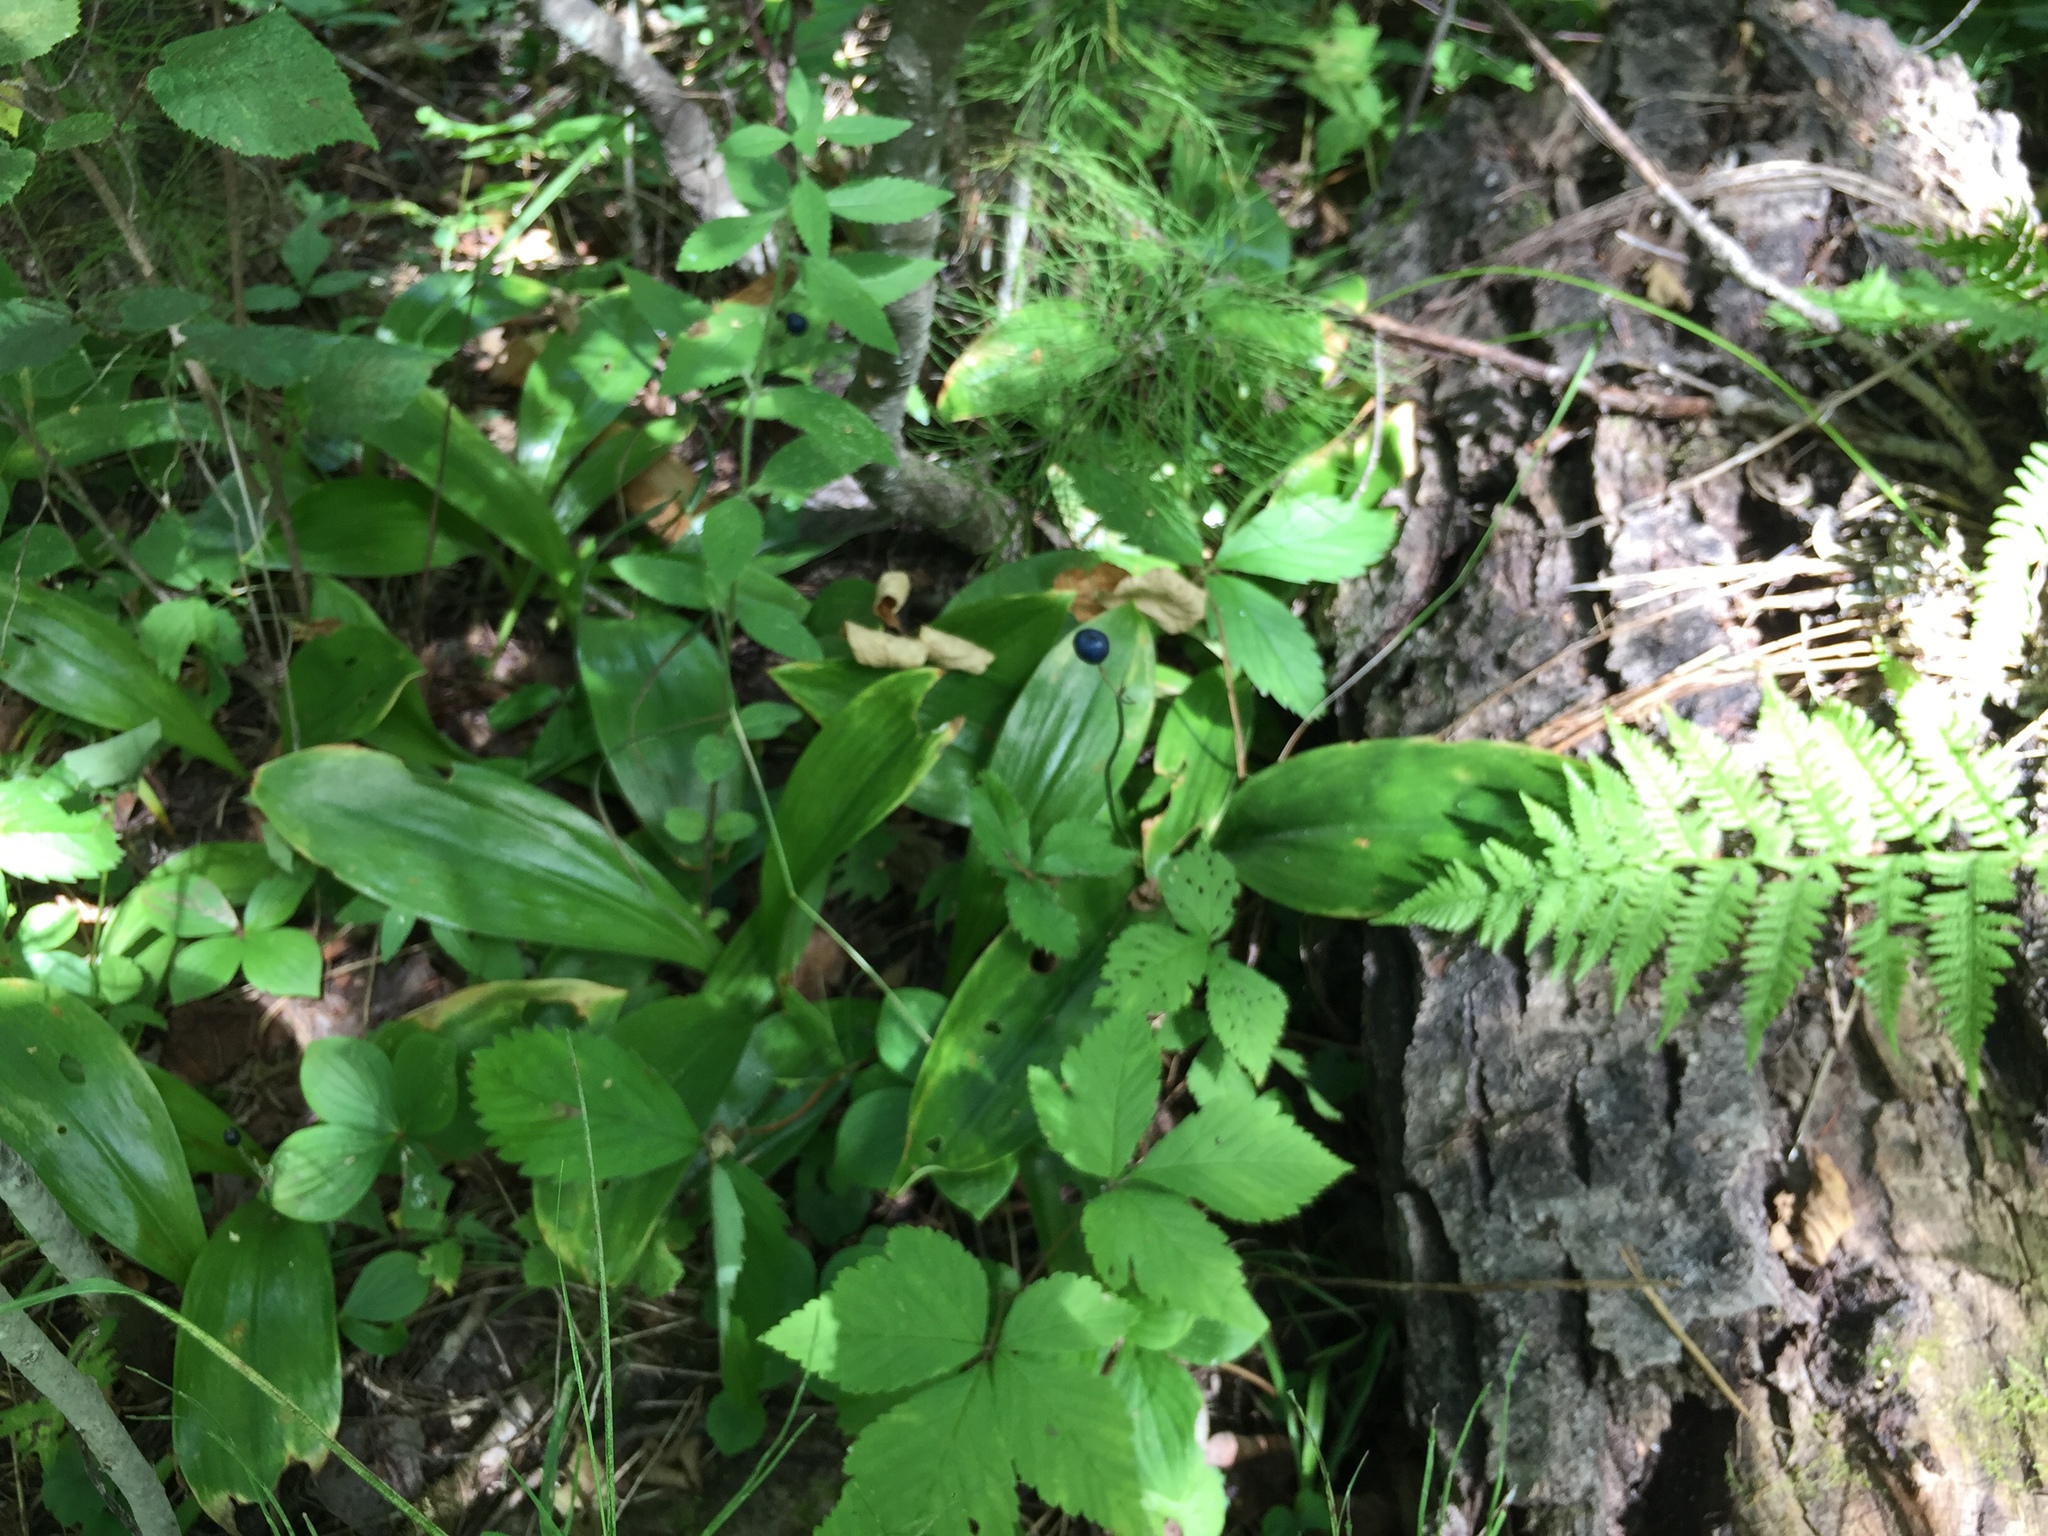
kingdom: Plantae
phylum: Tracheophyta
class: Liliopsida
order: Liliales
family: Liliaceae
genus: Clintonia
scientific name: Clintonia borealis
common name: Yellow clintonia
